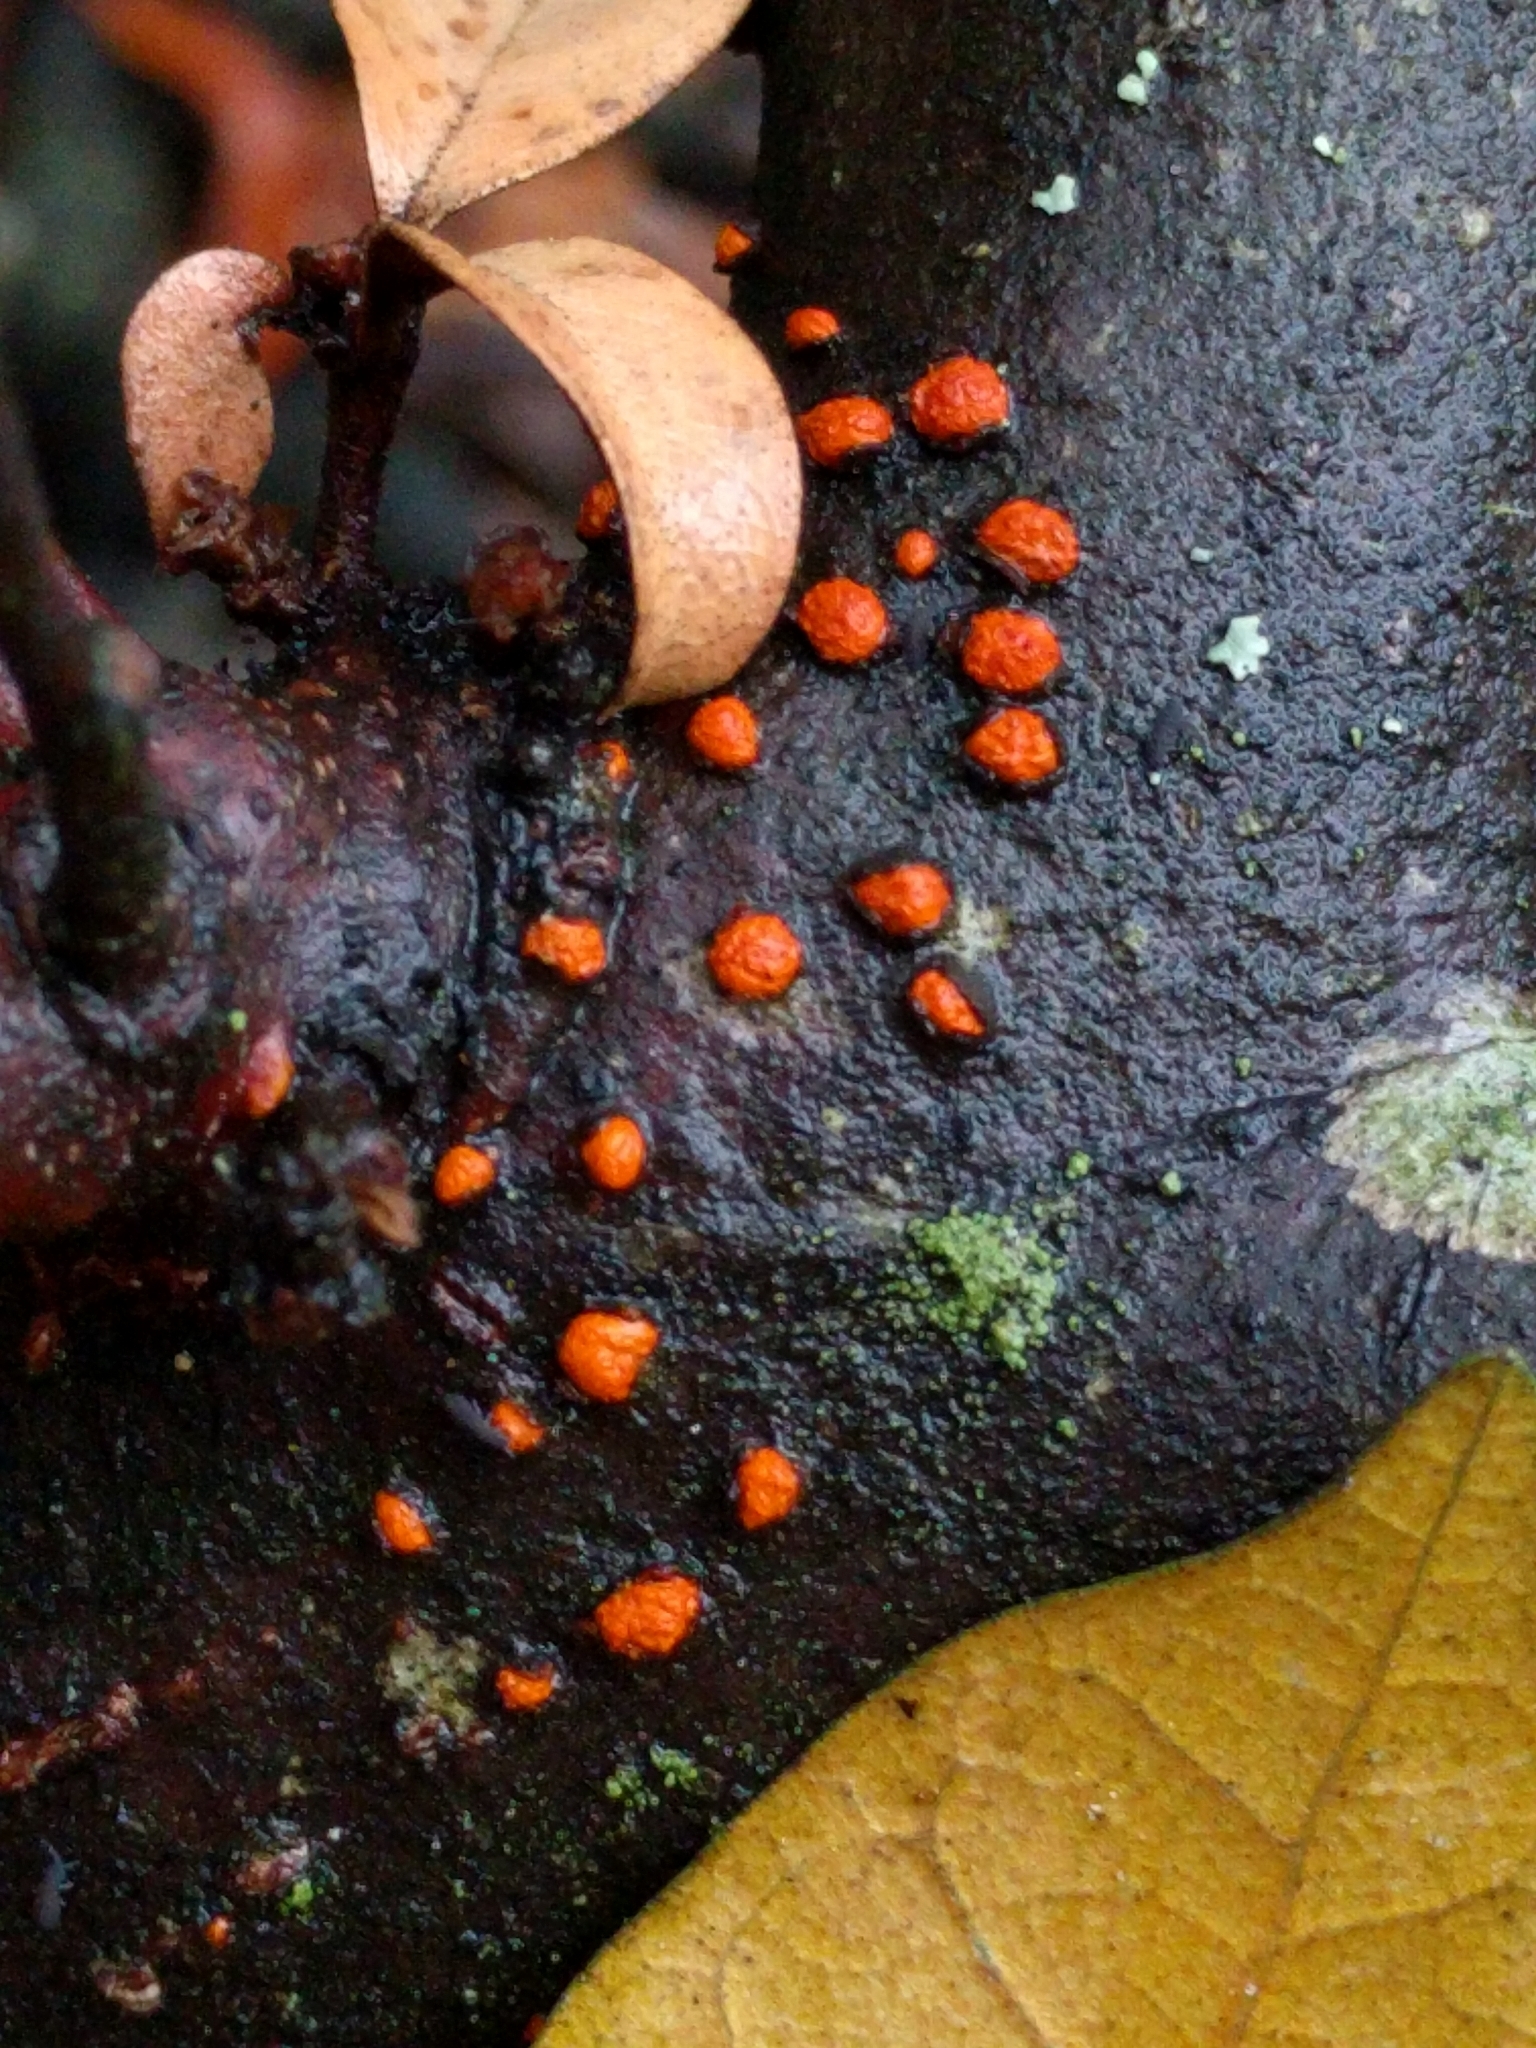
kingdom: Fungi
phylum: Ascomycota
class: Sordariomycetes
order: Diaporthales
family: Cryphonectriaceae
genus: Amphilogia
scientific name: Amphilogia gyrosa
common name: Orange hobnail canker
